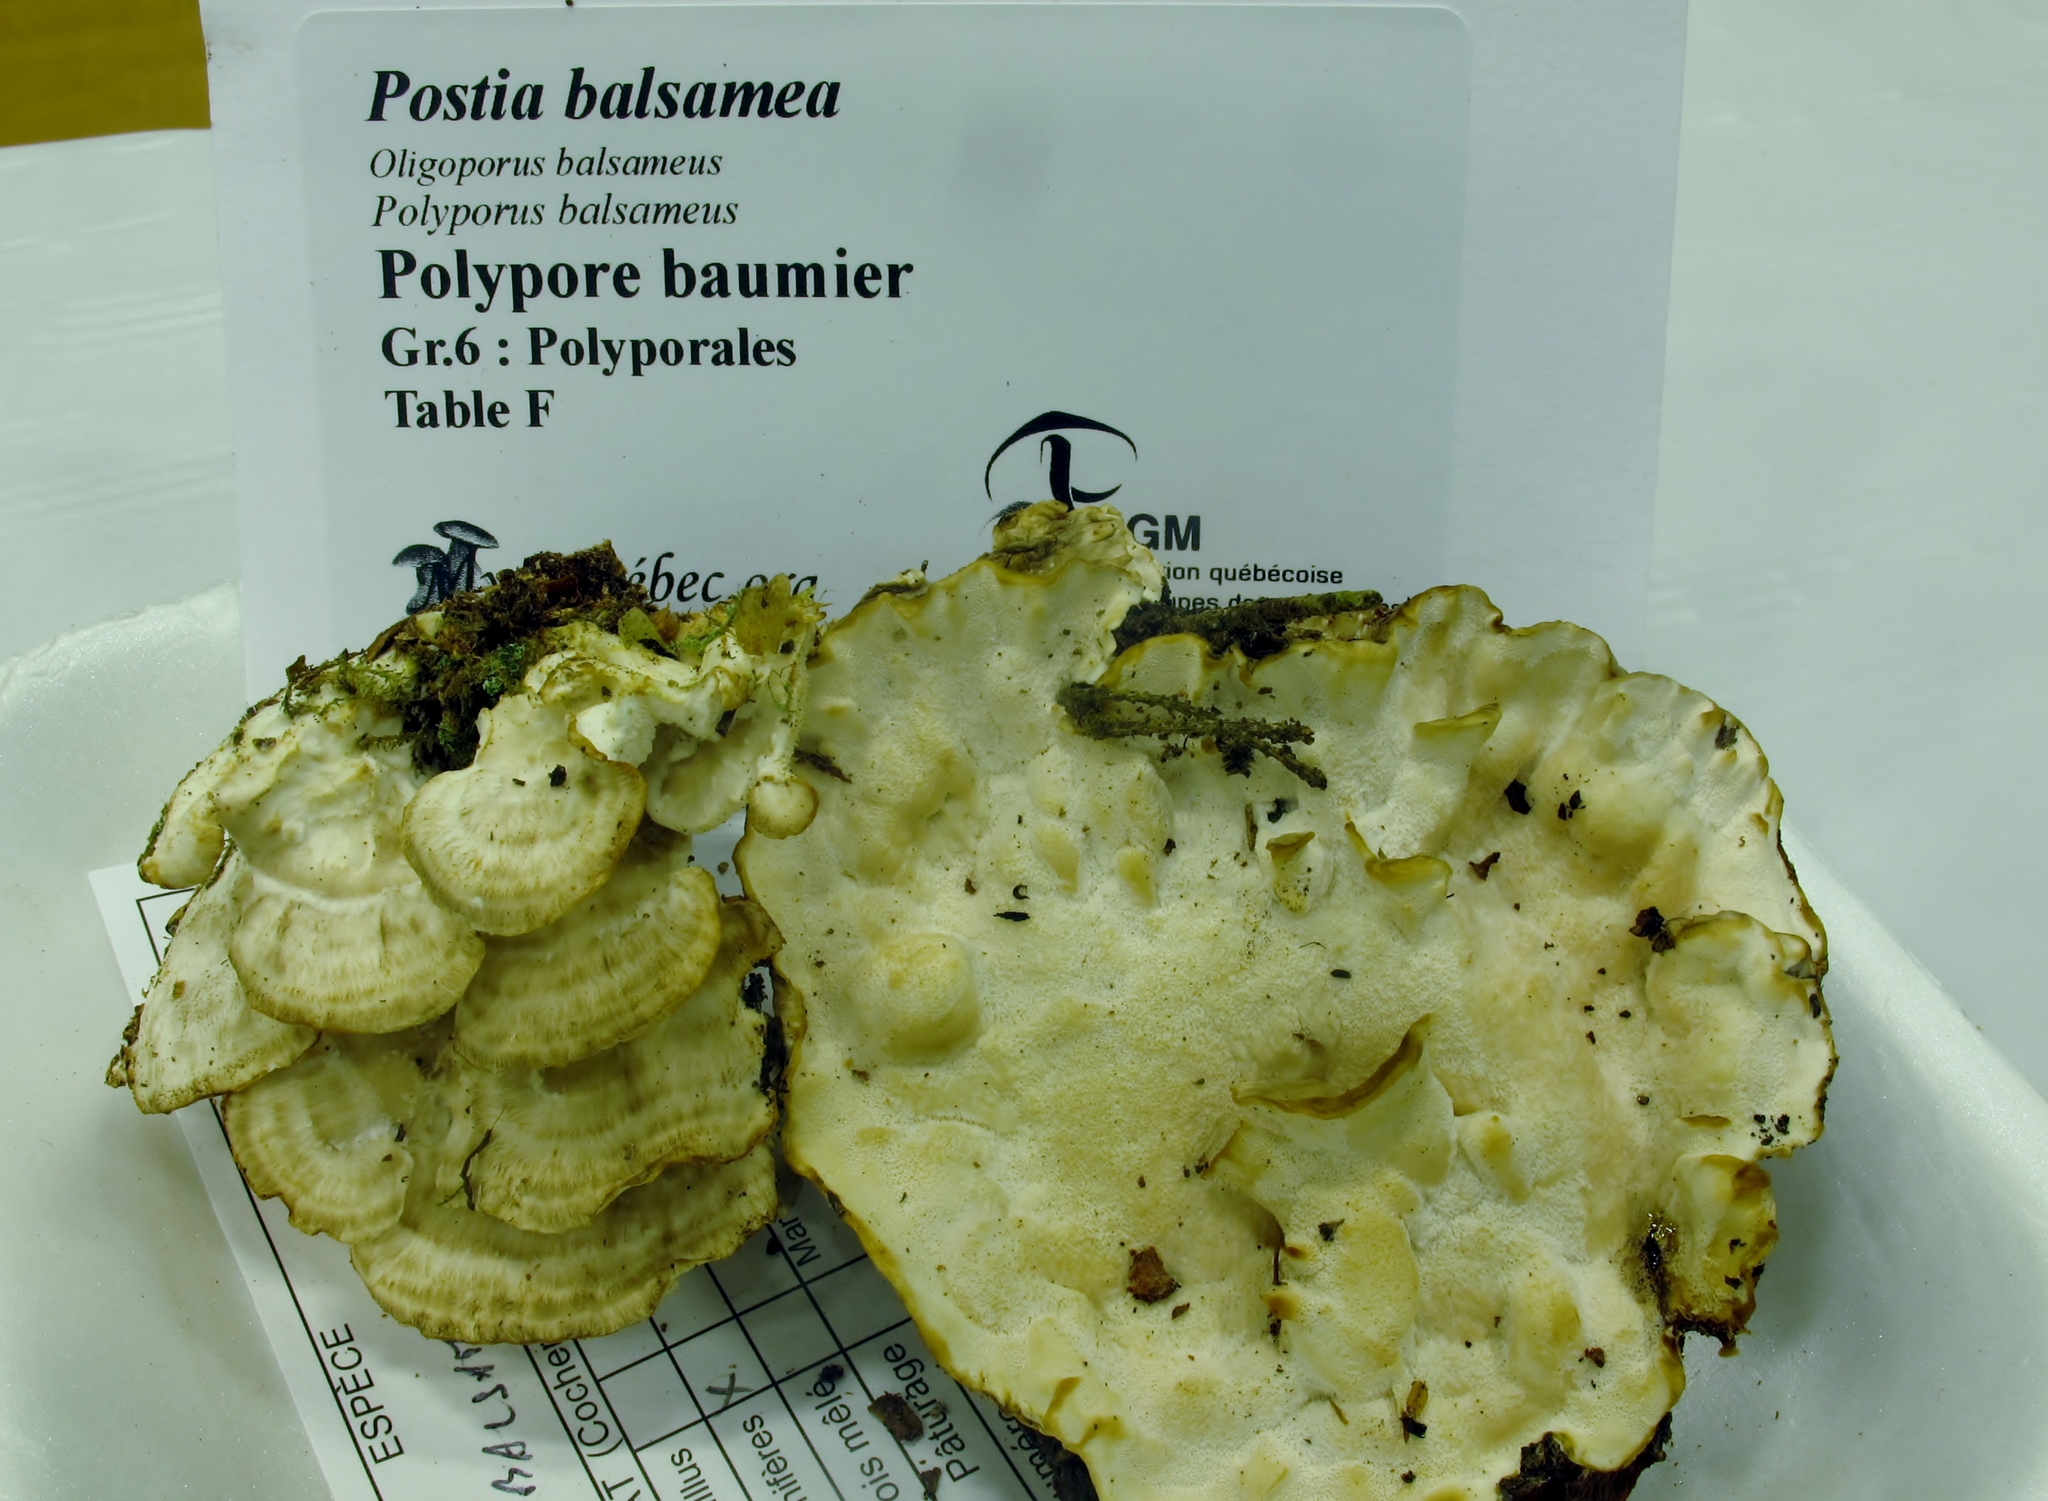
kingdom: Fungi
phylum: Basidiomycota
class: Agaricomycetes
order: Polyporales
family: Dacryobolaceae
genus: Postia
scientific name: Postia balsamea
